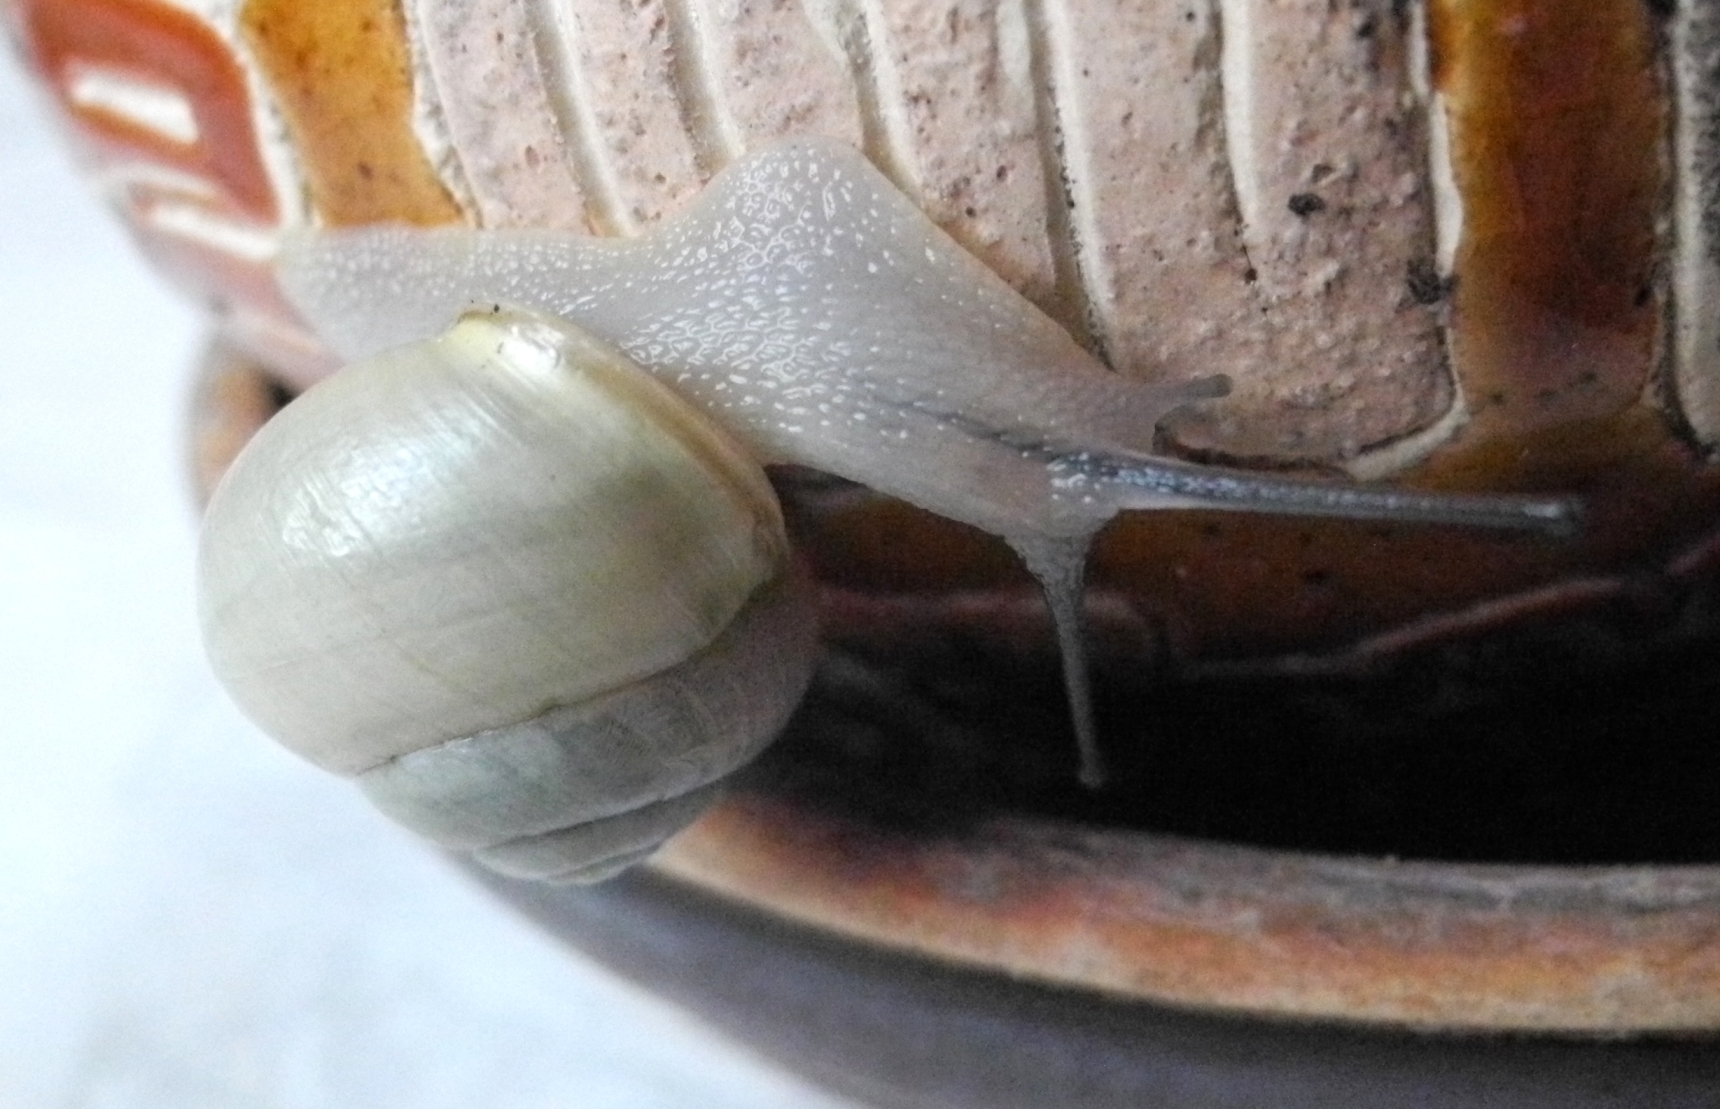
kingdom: Animalia
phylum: Mollusca
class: Gastropoda
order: Stylommatophora
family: Helicidae
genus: Cepaea
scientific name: Cepaea hortensis
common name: White-lip gardensnail
